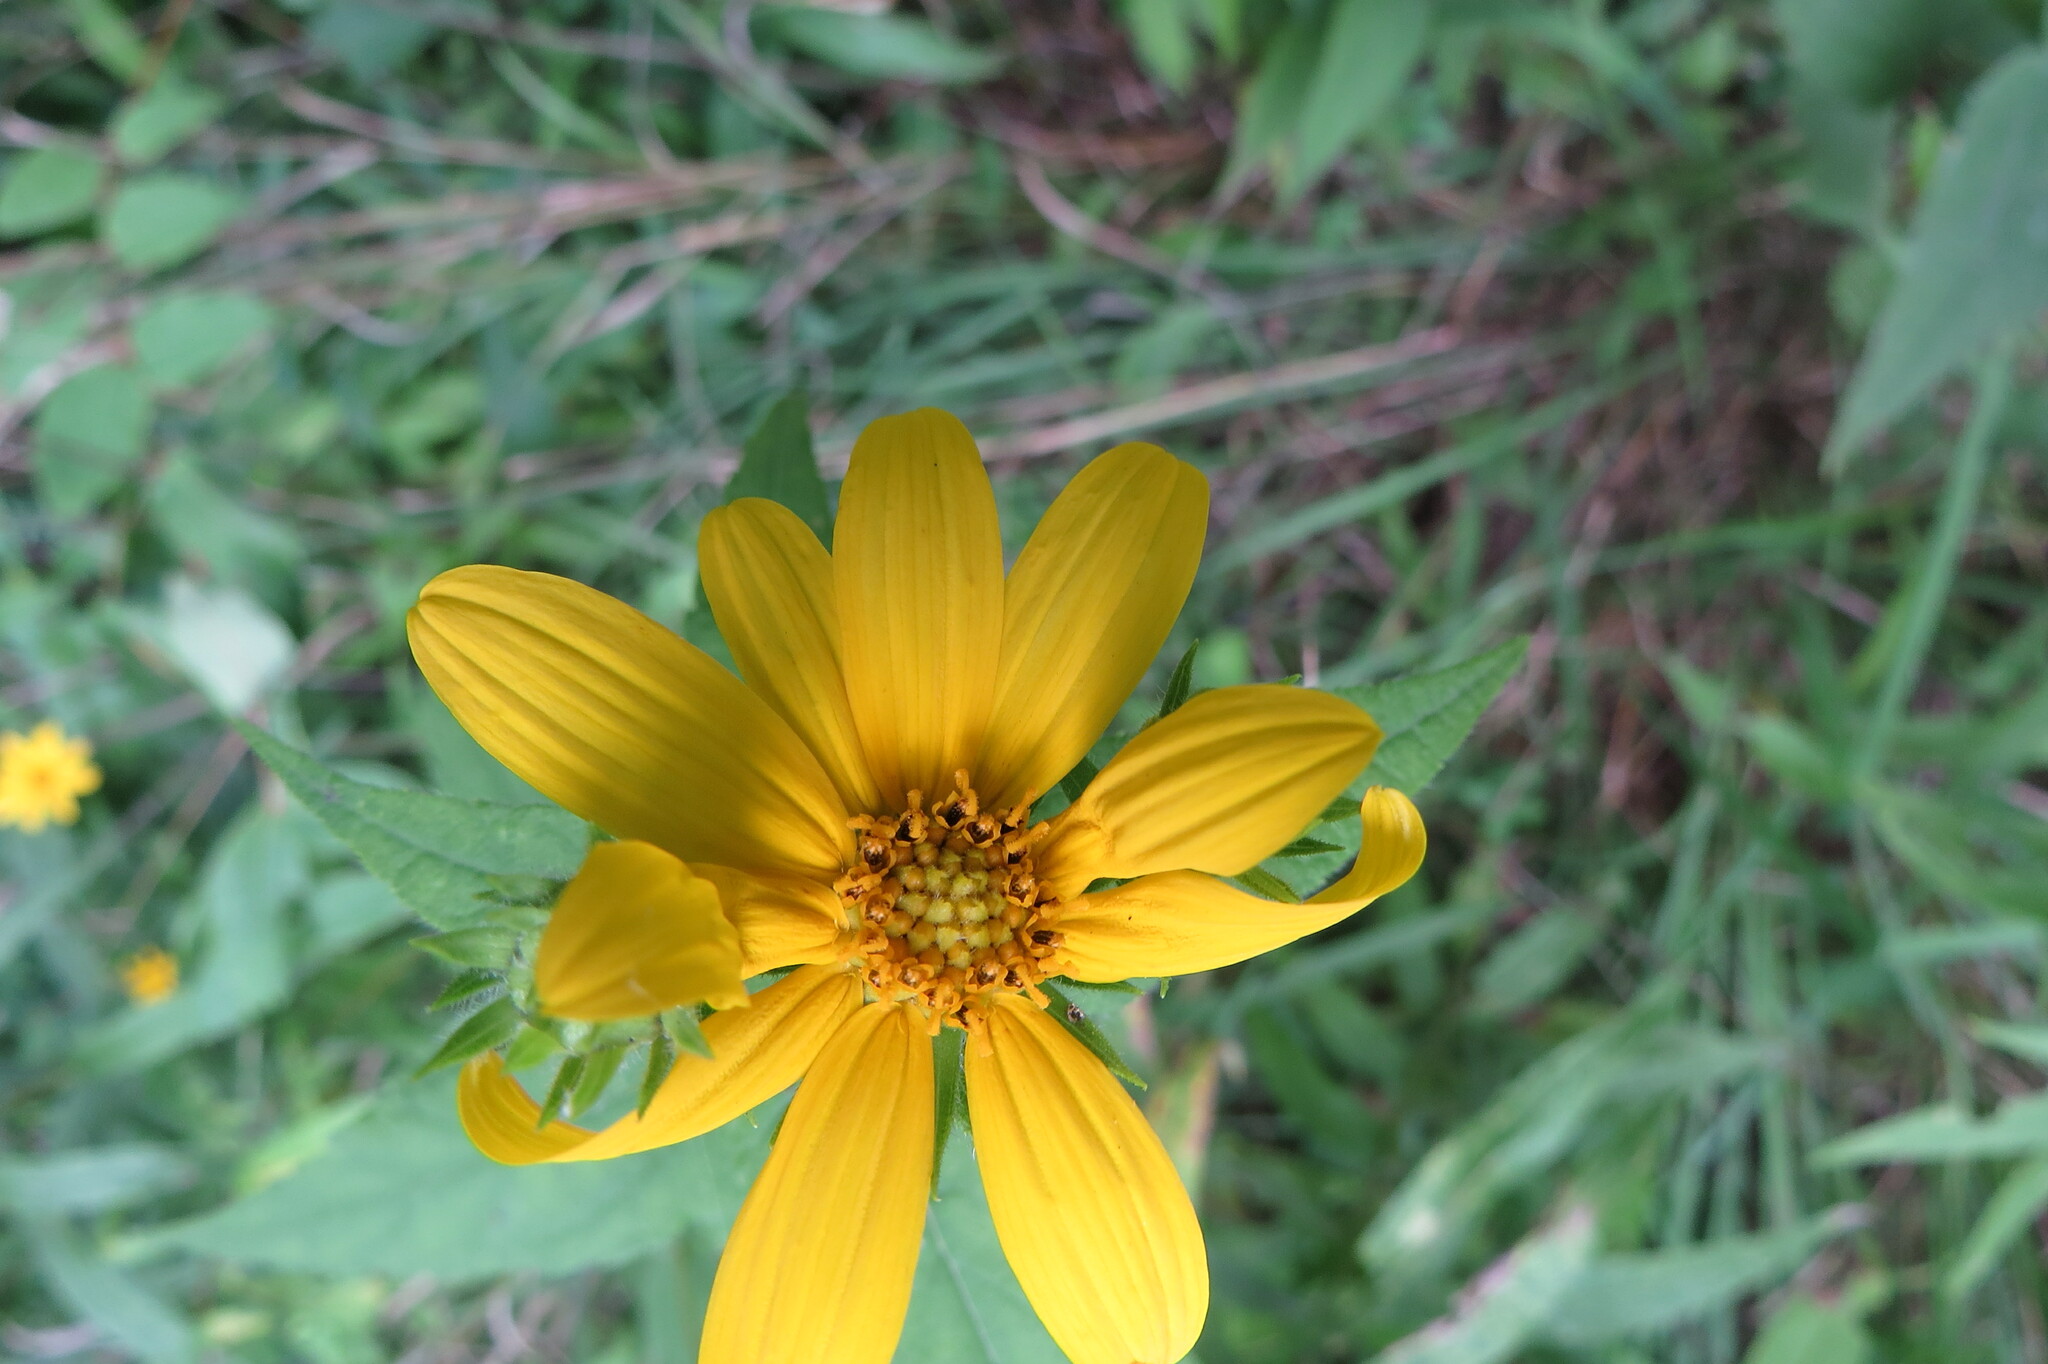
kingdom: Plantae
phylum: Tracheophyta
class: Magnoliopsida
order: Asterales
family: Asteraceae
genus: Helianthus
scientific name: Helianthus divaricatus
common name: Divergent sunflower
